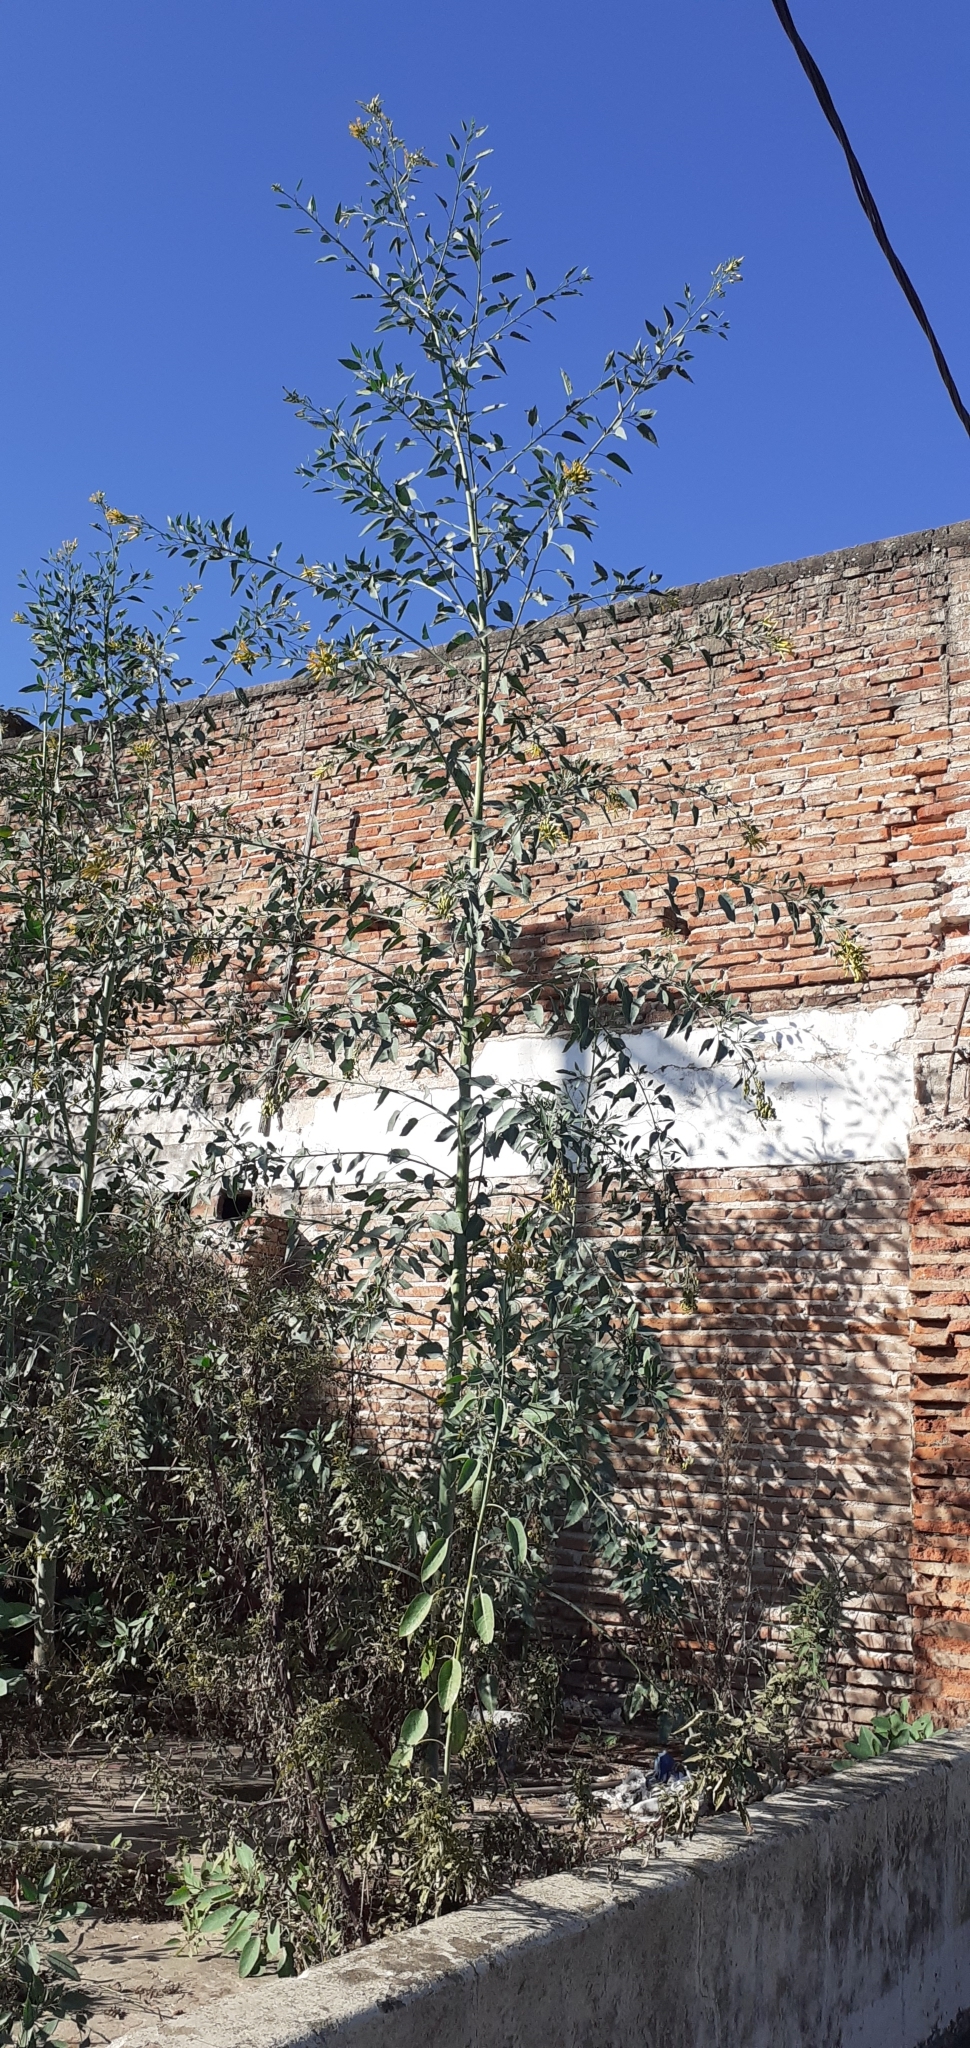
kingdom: Plantae
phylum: Tracheophyta
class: Magnoliopsida
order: Solanales
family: Solanaceae
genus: Nicotiana
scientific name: Nicotiana glauca
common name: Tree tobacco
